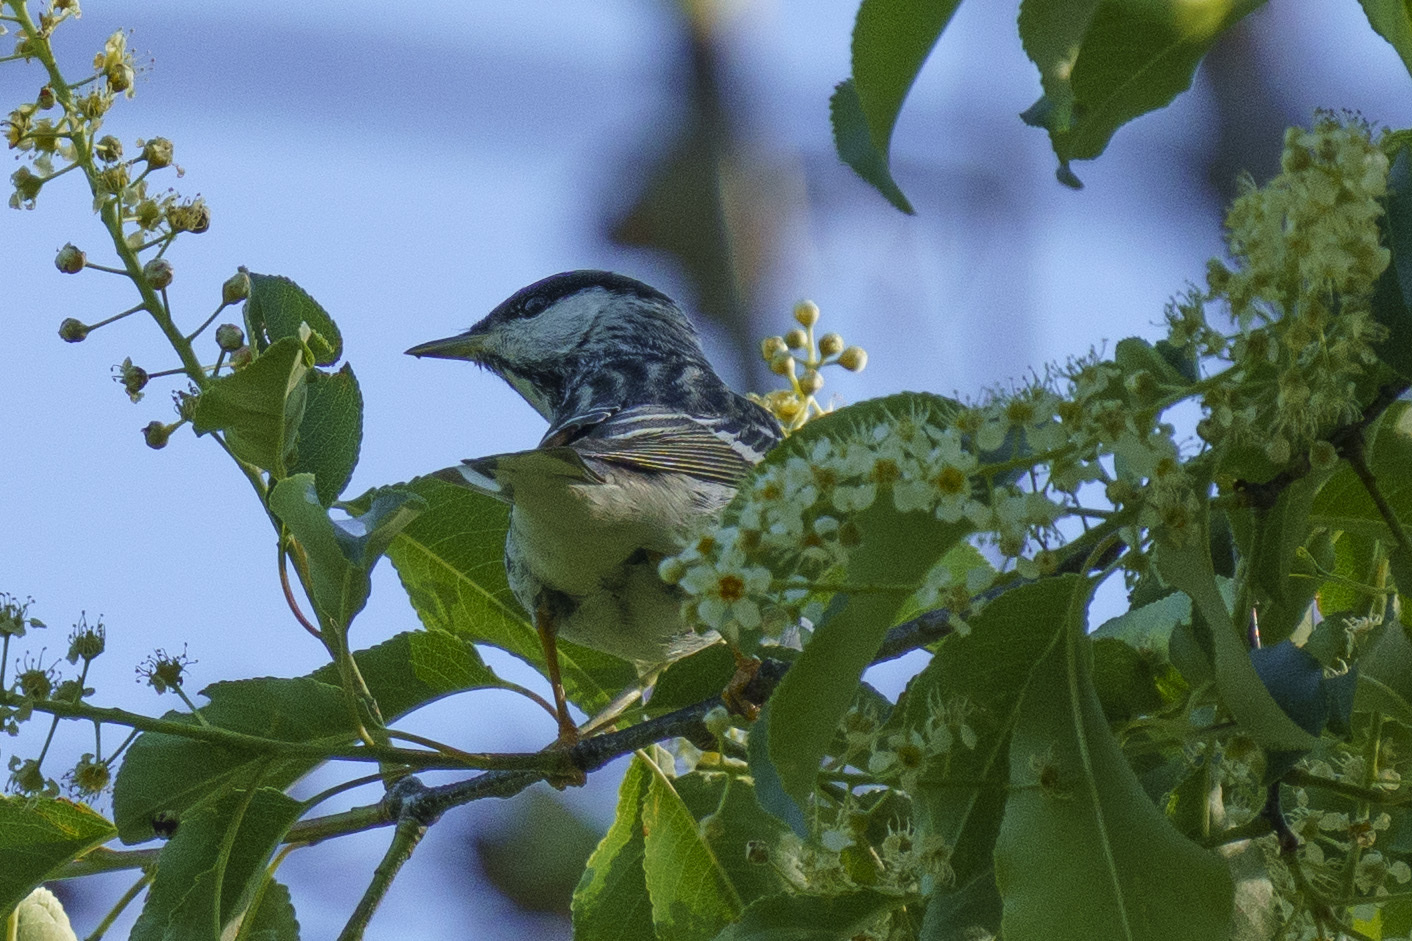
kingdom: Animalia
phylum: Chordata
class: Aves
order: Passeriformes
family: Parulidae
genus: Setophaga
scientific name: Setophaga striata
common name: Blackpoll warbler
